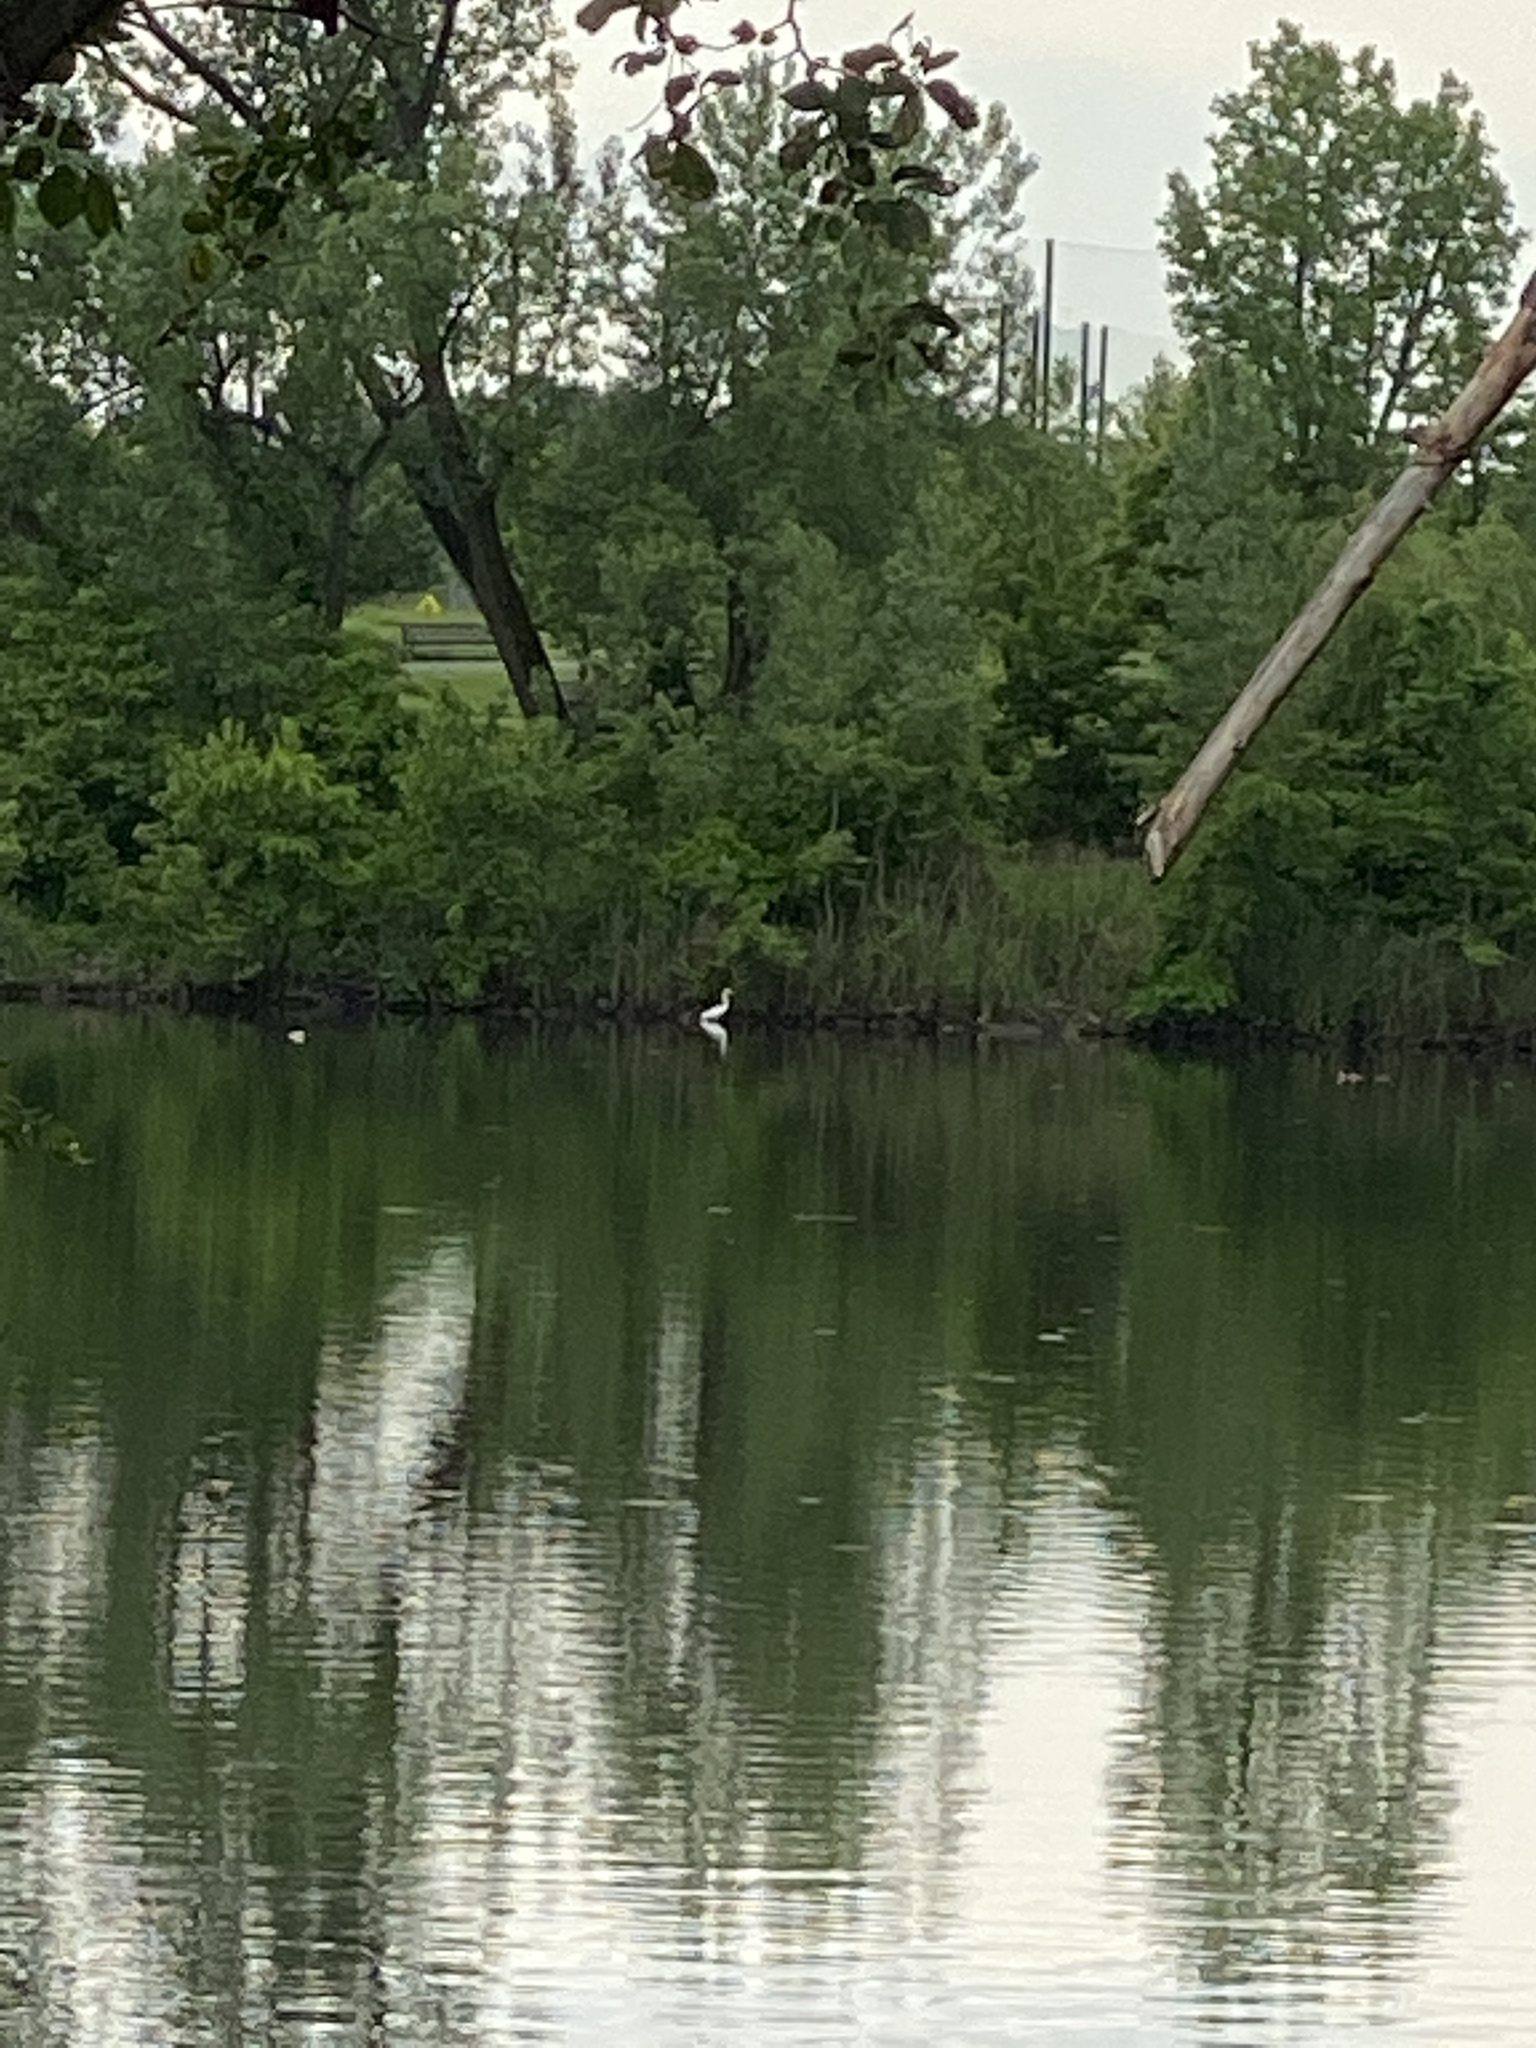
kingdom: Animalia
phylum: Chordata
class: Aves
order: Pelecaniformes
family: Ardeidae
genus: Ardea
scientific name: Ardea alba
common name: Great egret
